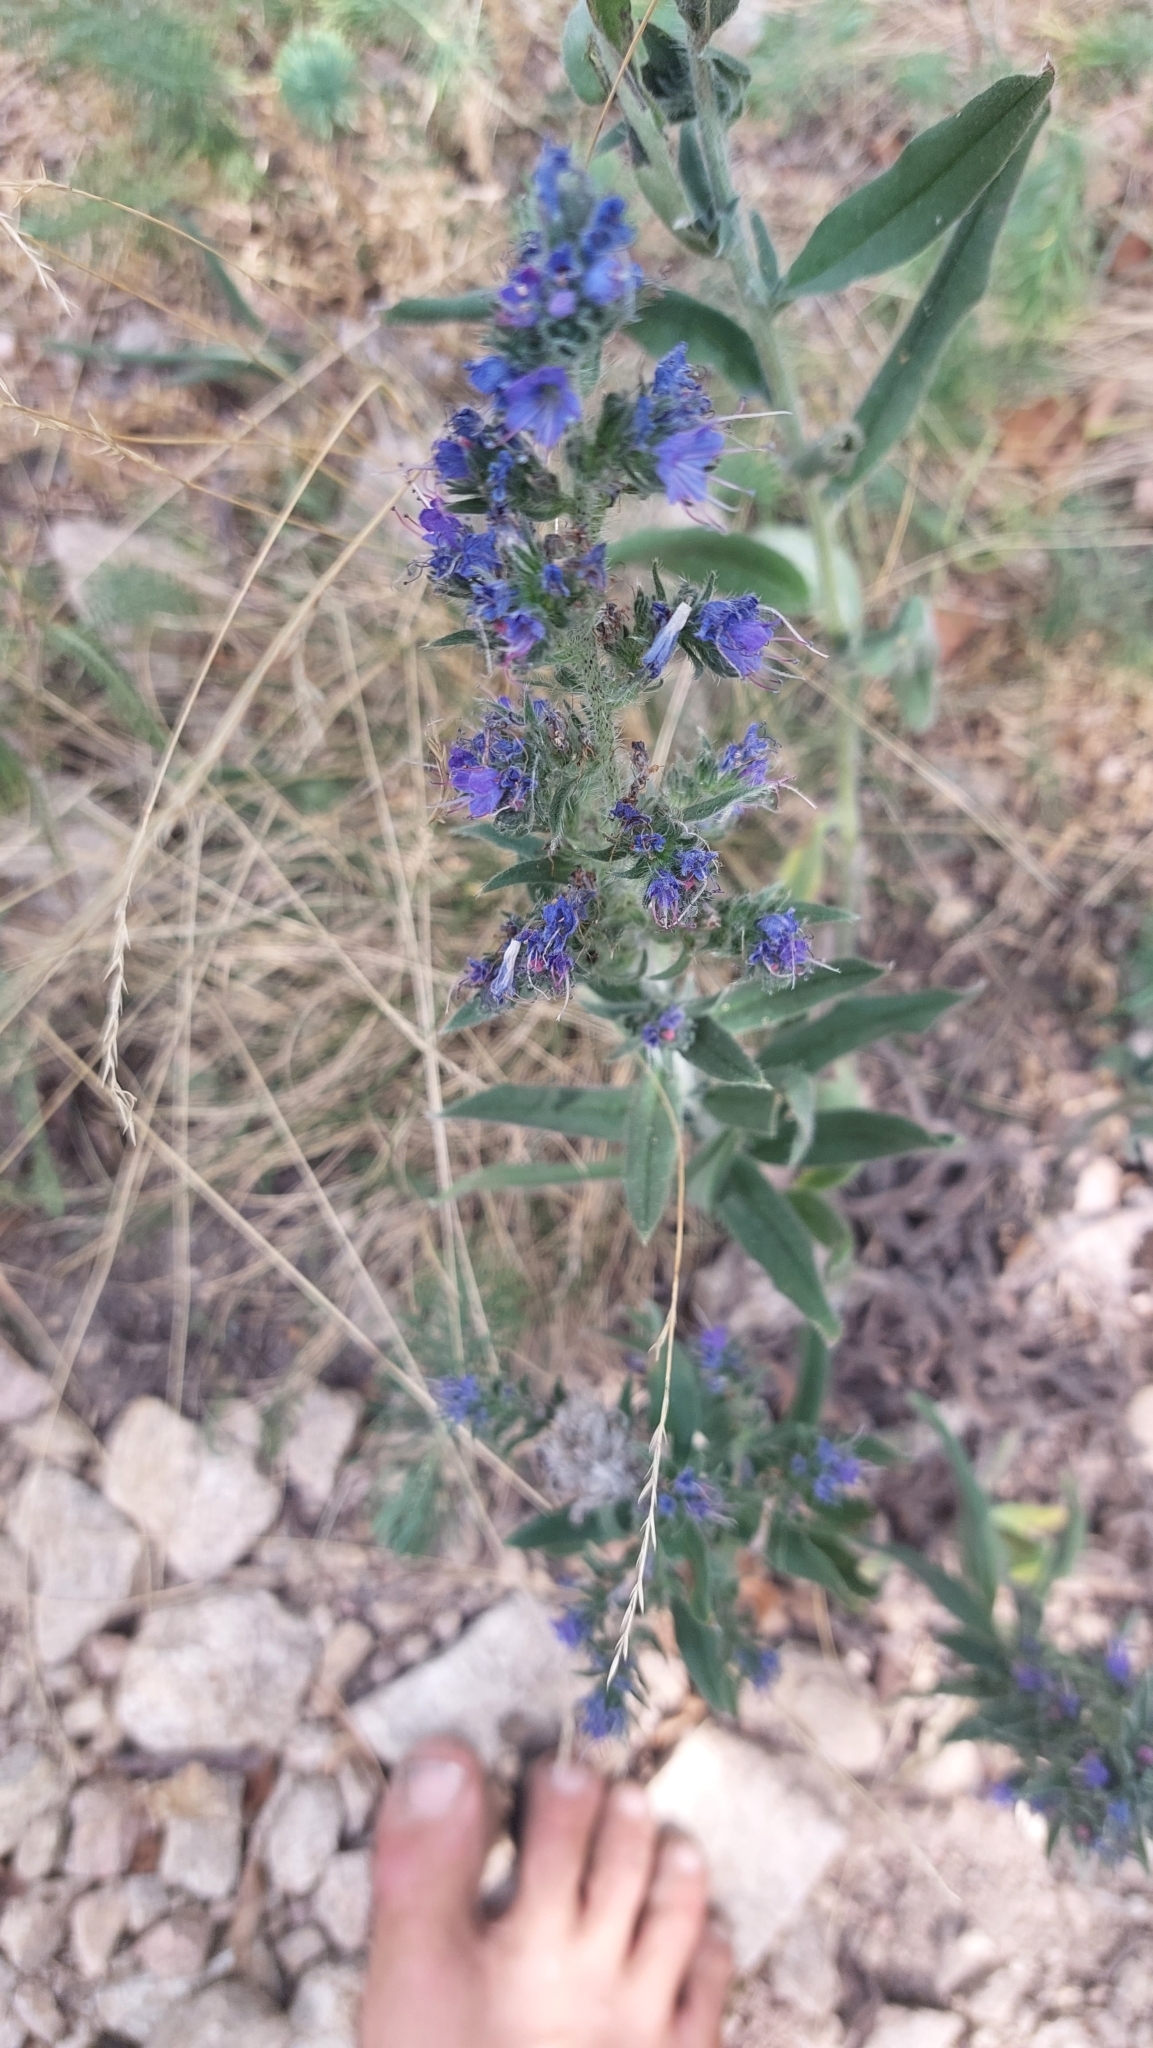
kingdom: Plantae
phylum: Tracheophyta
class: Magnoliopsida
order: Boraginales
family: Boraginaceae
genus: Echium
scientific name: Echium vulgare
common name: Common viper's bugloss
